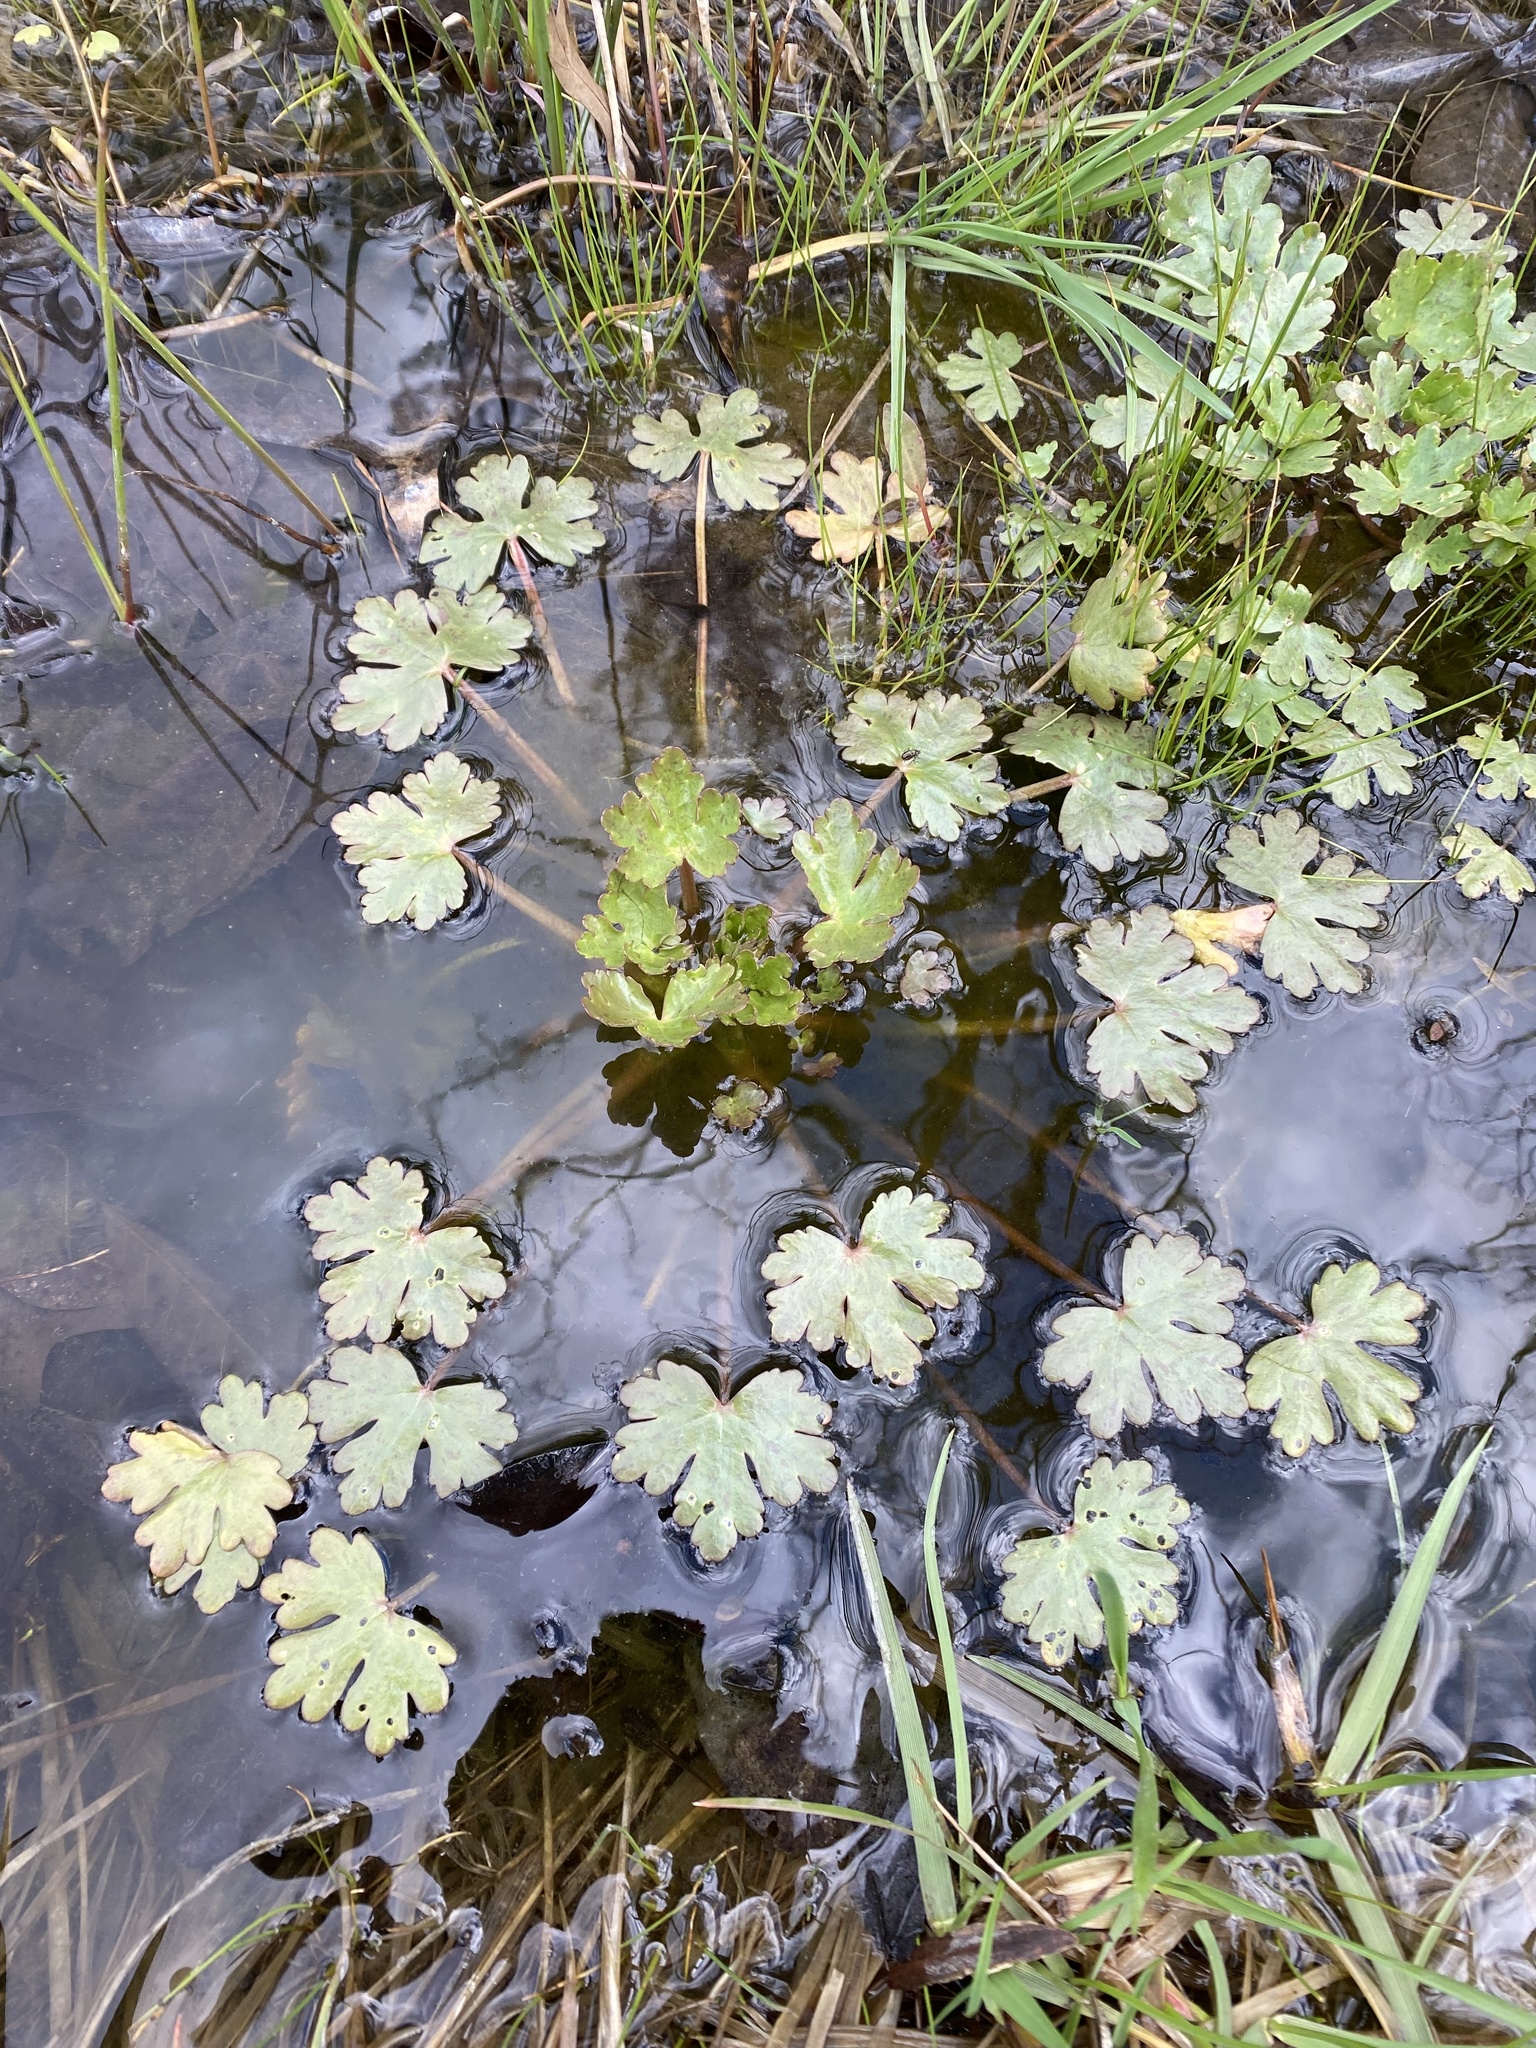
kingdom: Plantae
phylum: Tracheophyta
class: Magnoliopsida
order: Ranunculales
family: Ranunculaceae
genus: Ranunculus
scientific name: Ranunculus sceleratus
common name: Celery-leaved buttercup
